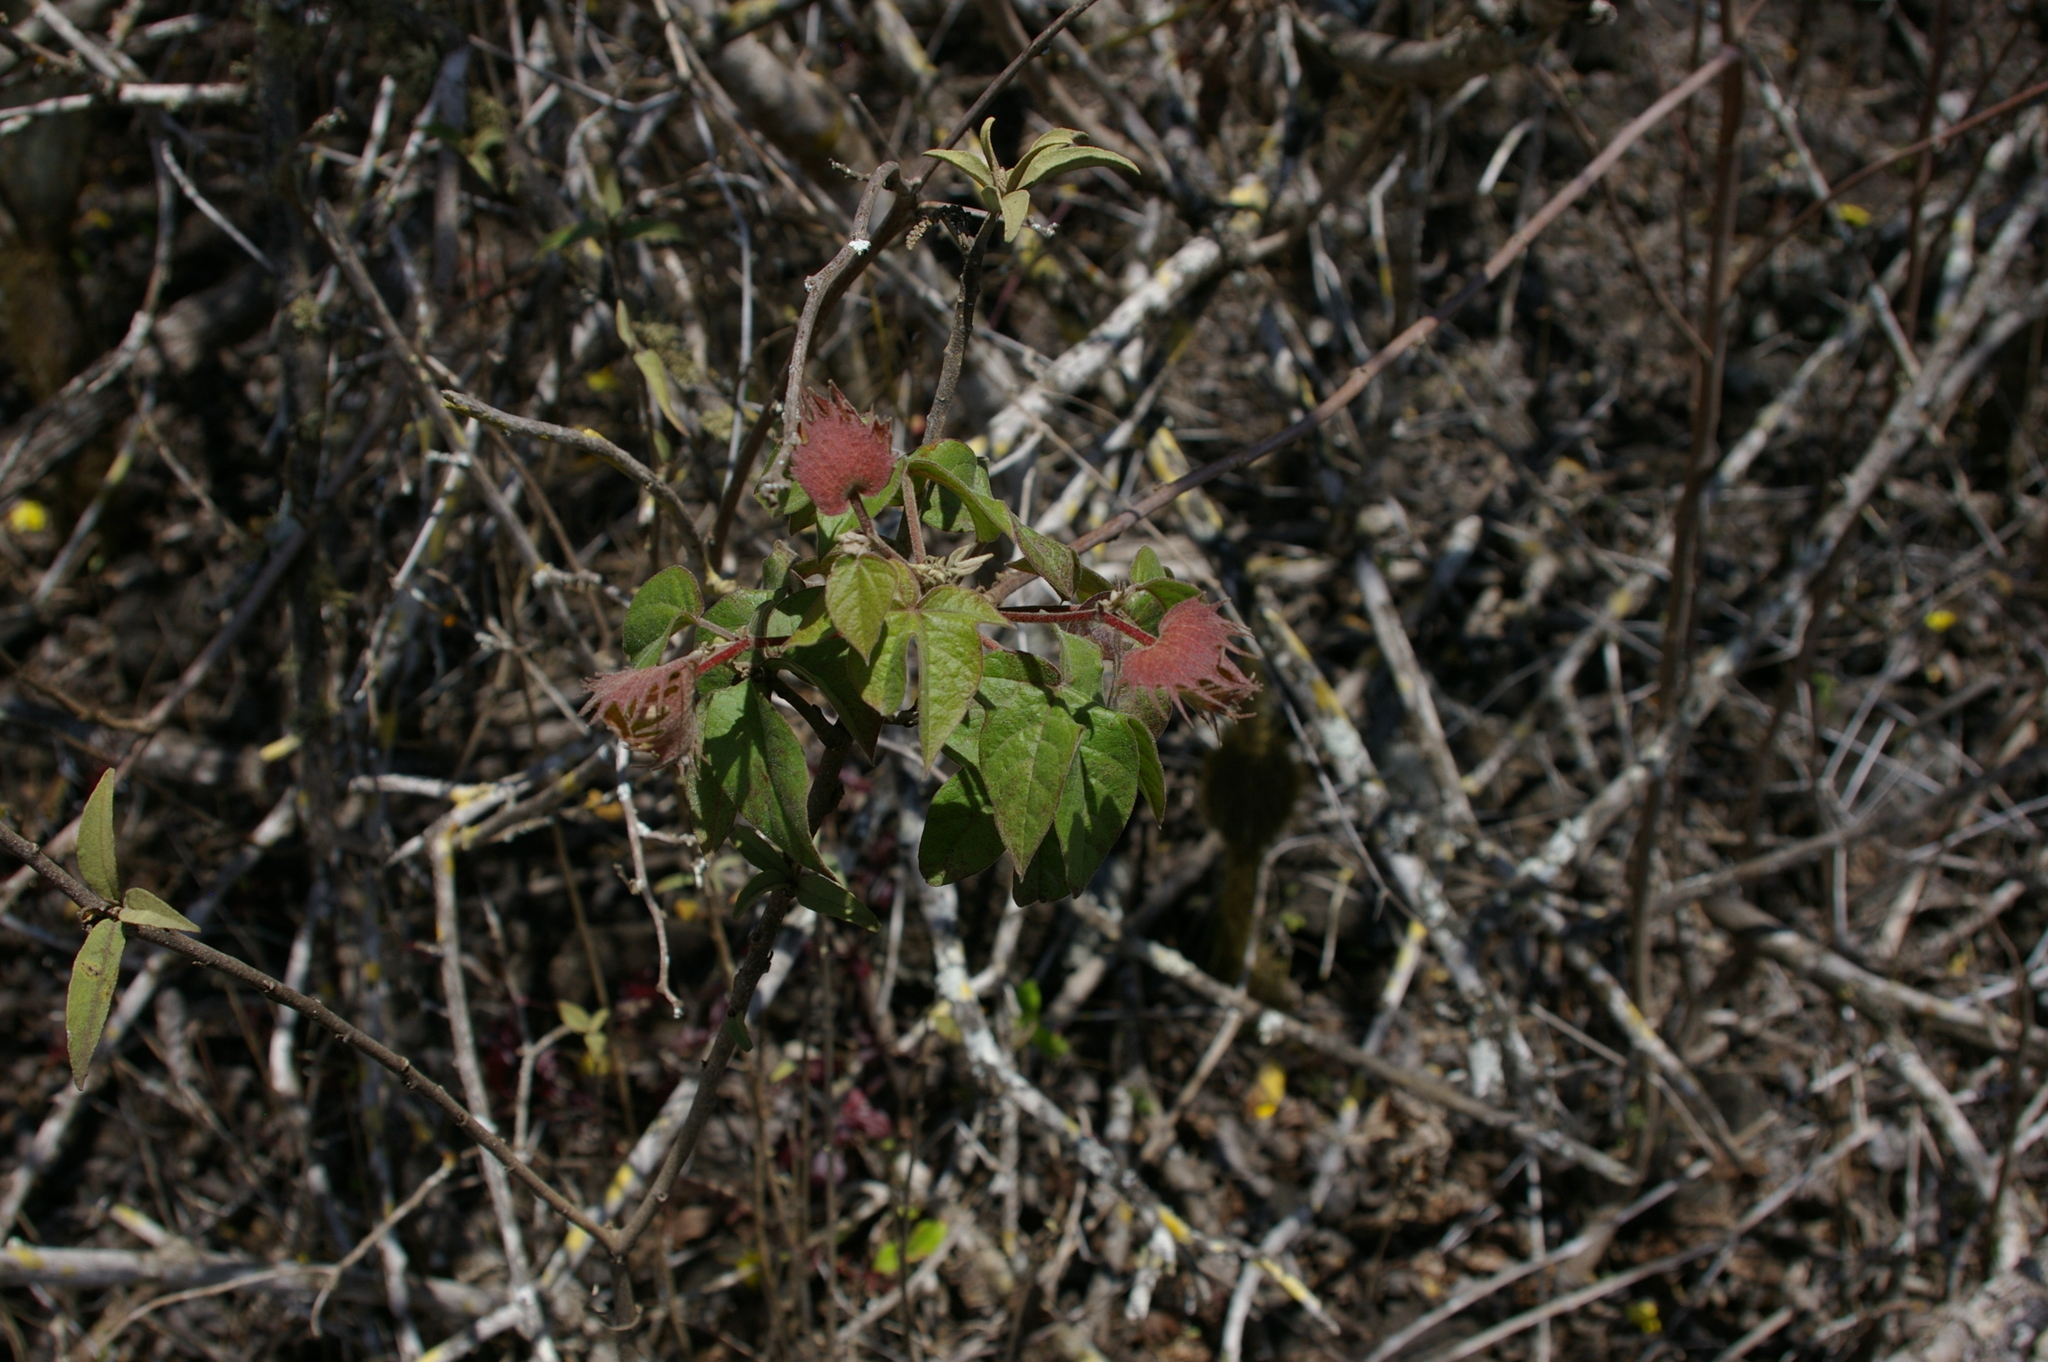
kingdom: Plantae
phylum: Tracheophyta
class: Magnoliopsida
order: Malvales
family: Malvaceae
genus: Gossypium
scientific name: Gossypium darwinii
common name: Darwin's cotton
